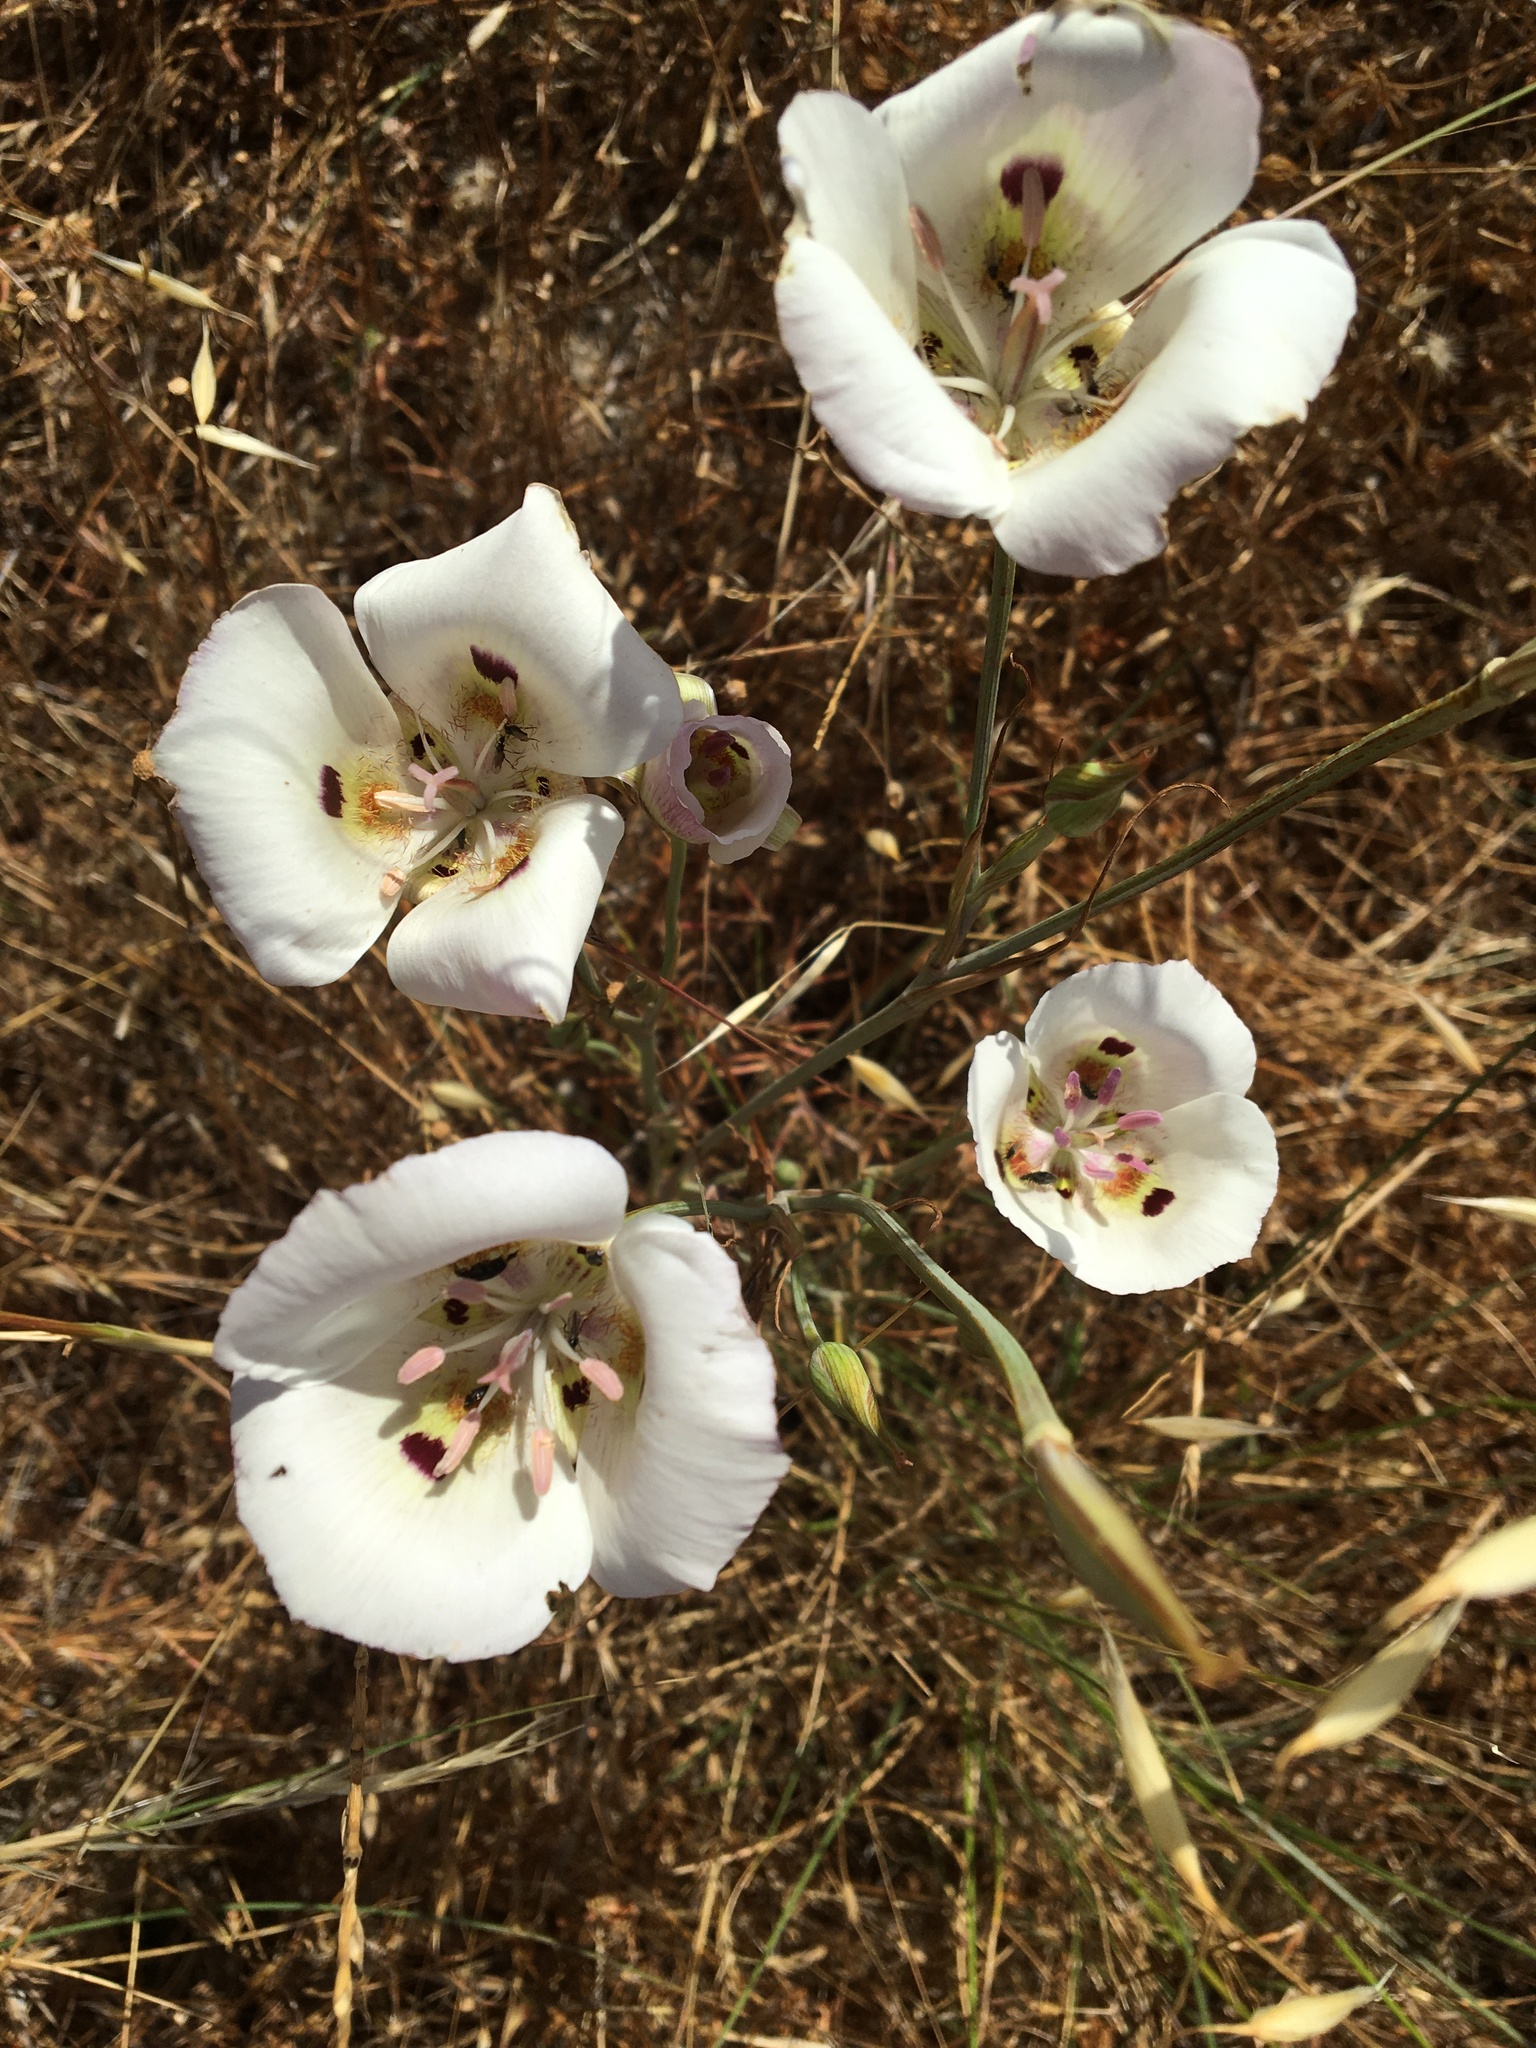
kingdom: Plantae
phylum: Tracheophyta
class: Liliopsida
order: Liliales
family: Liliaceae
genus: Calochortus
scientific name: Calochortus argillosus
